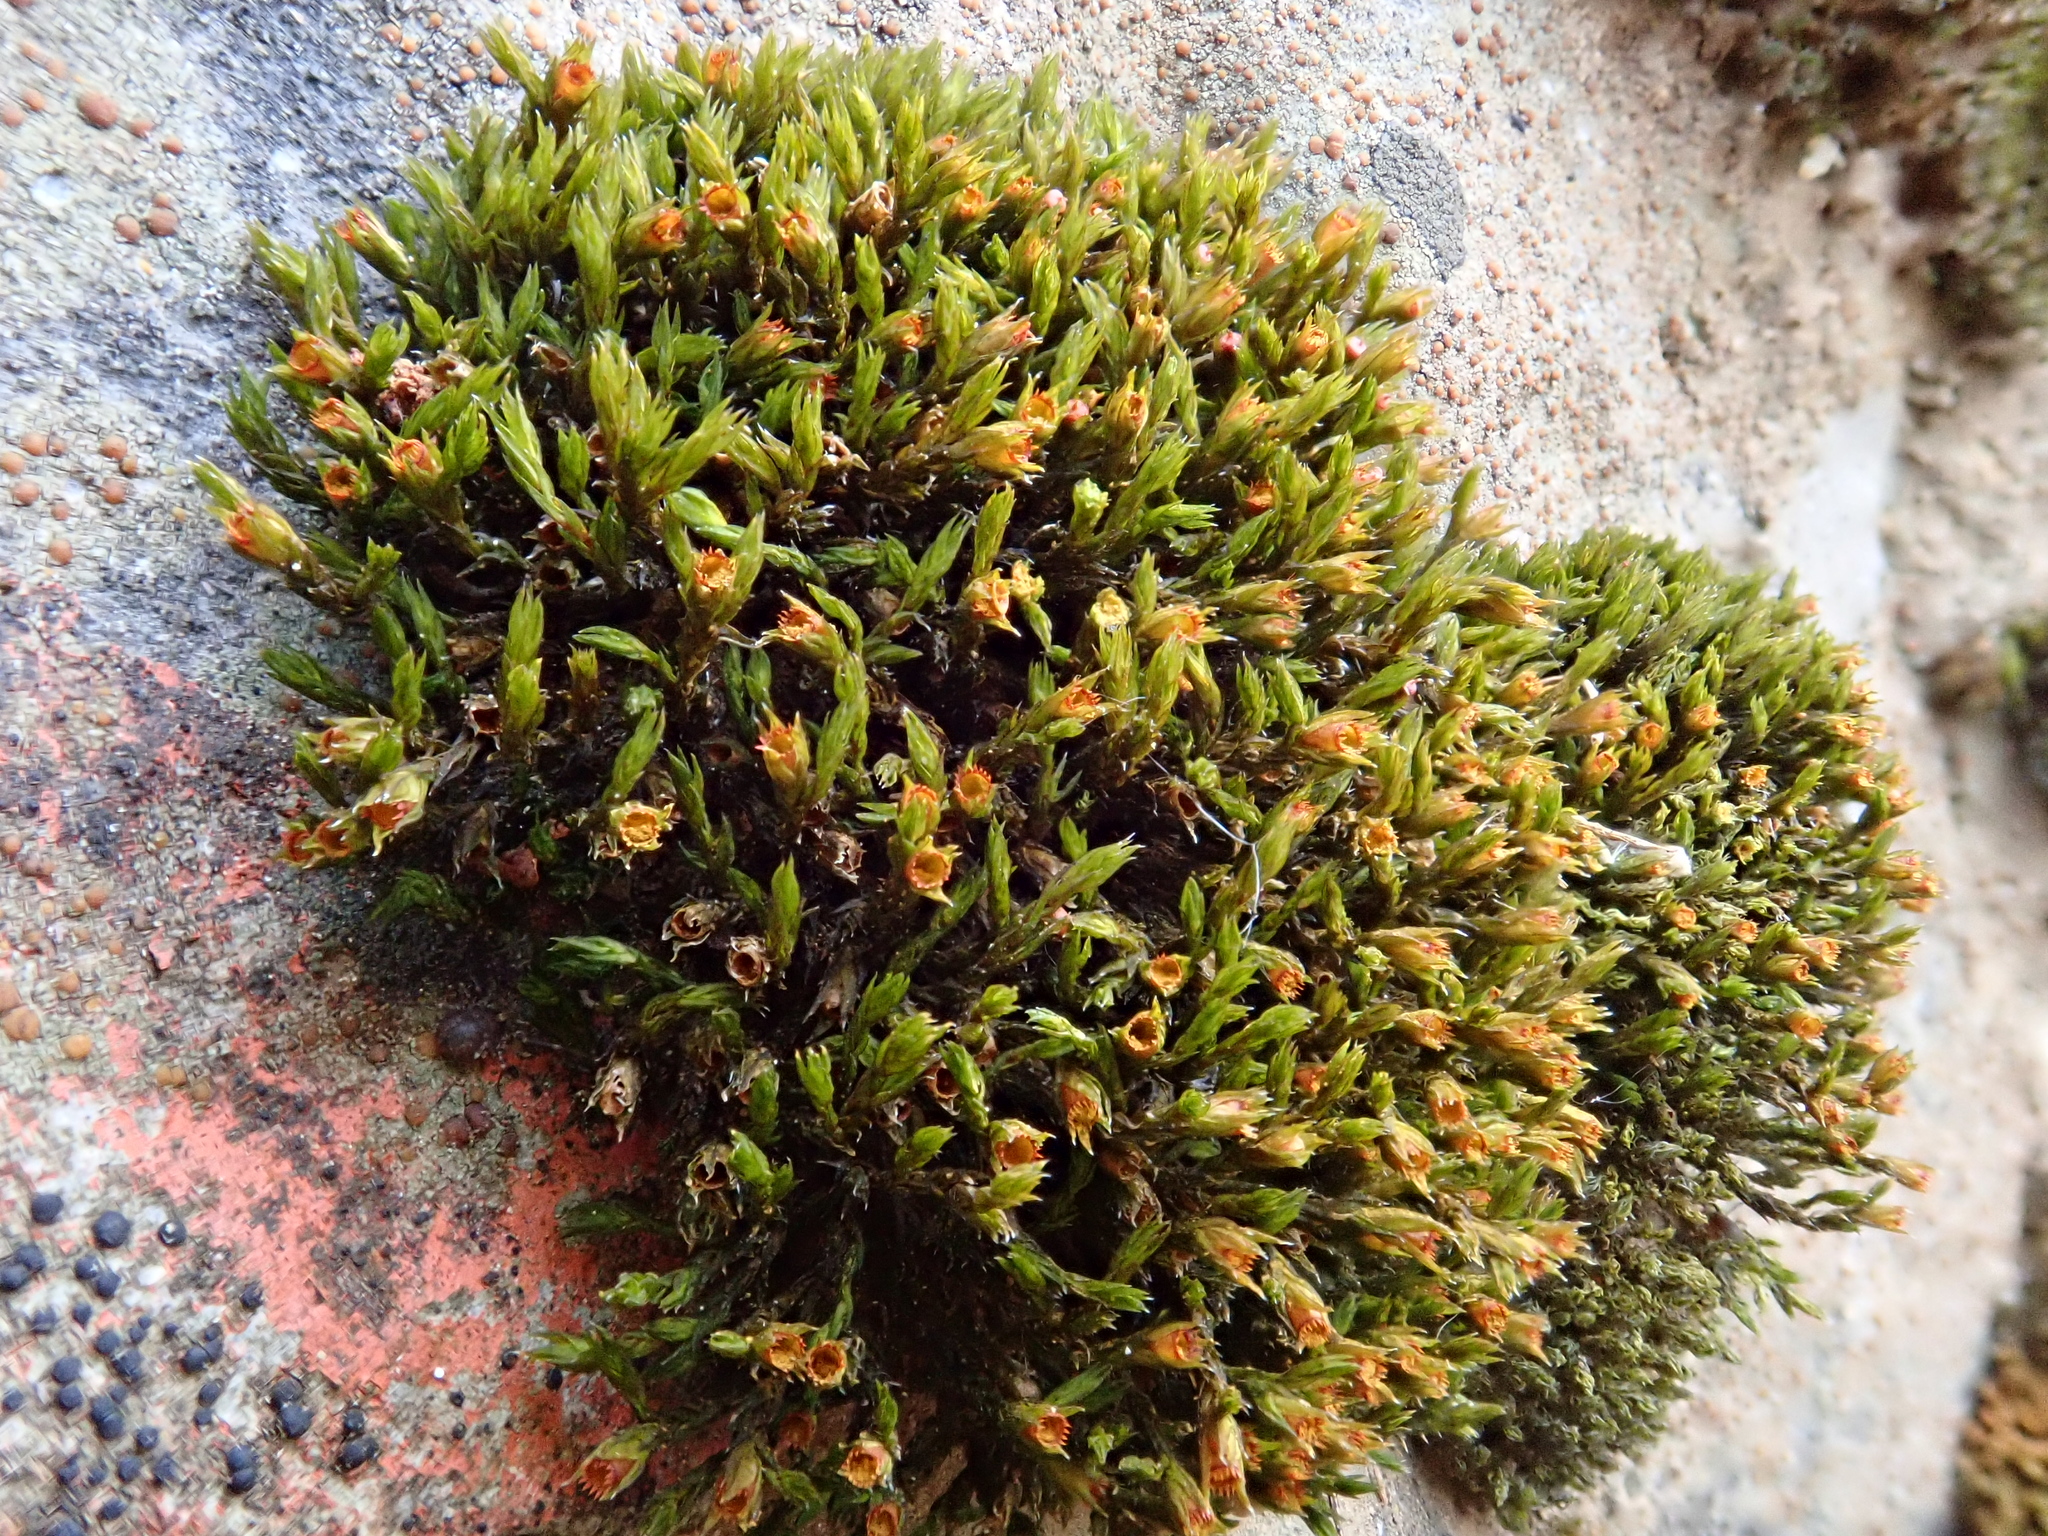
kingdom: Plantae
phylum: Bryophyta
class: Bryopsida
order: Grimmiales
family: Grimmiaceae
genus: Schistidium
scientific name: Schistidium apocarpum
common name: Radiate bloom moss
